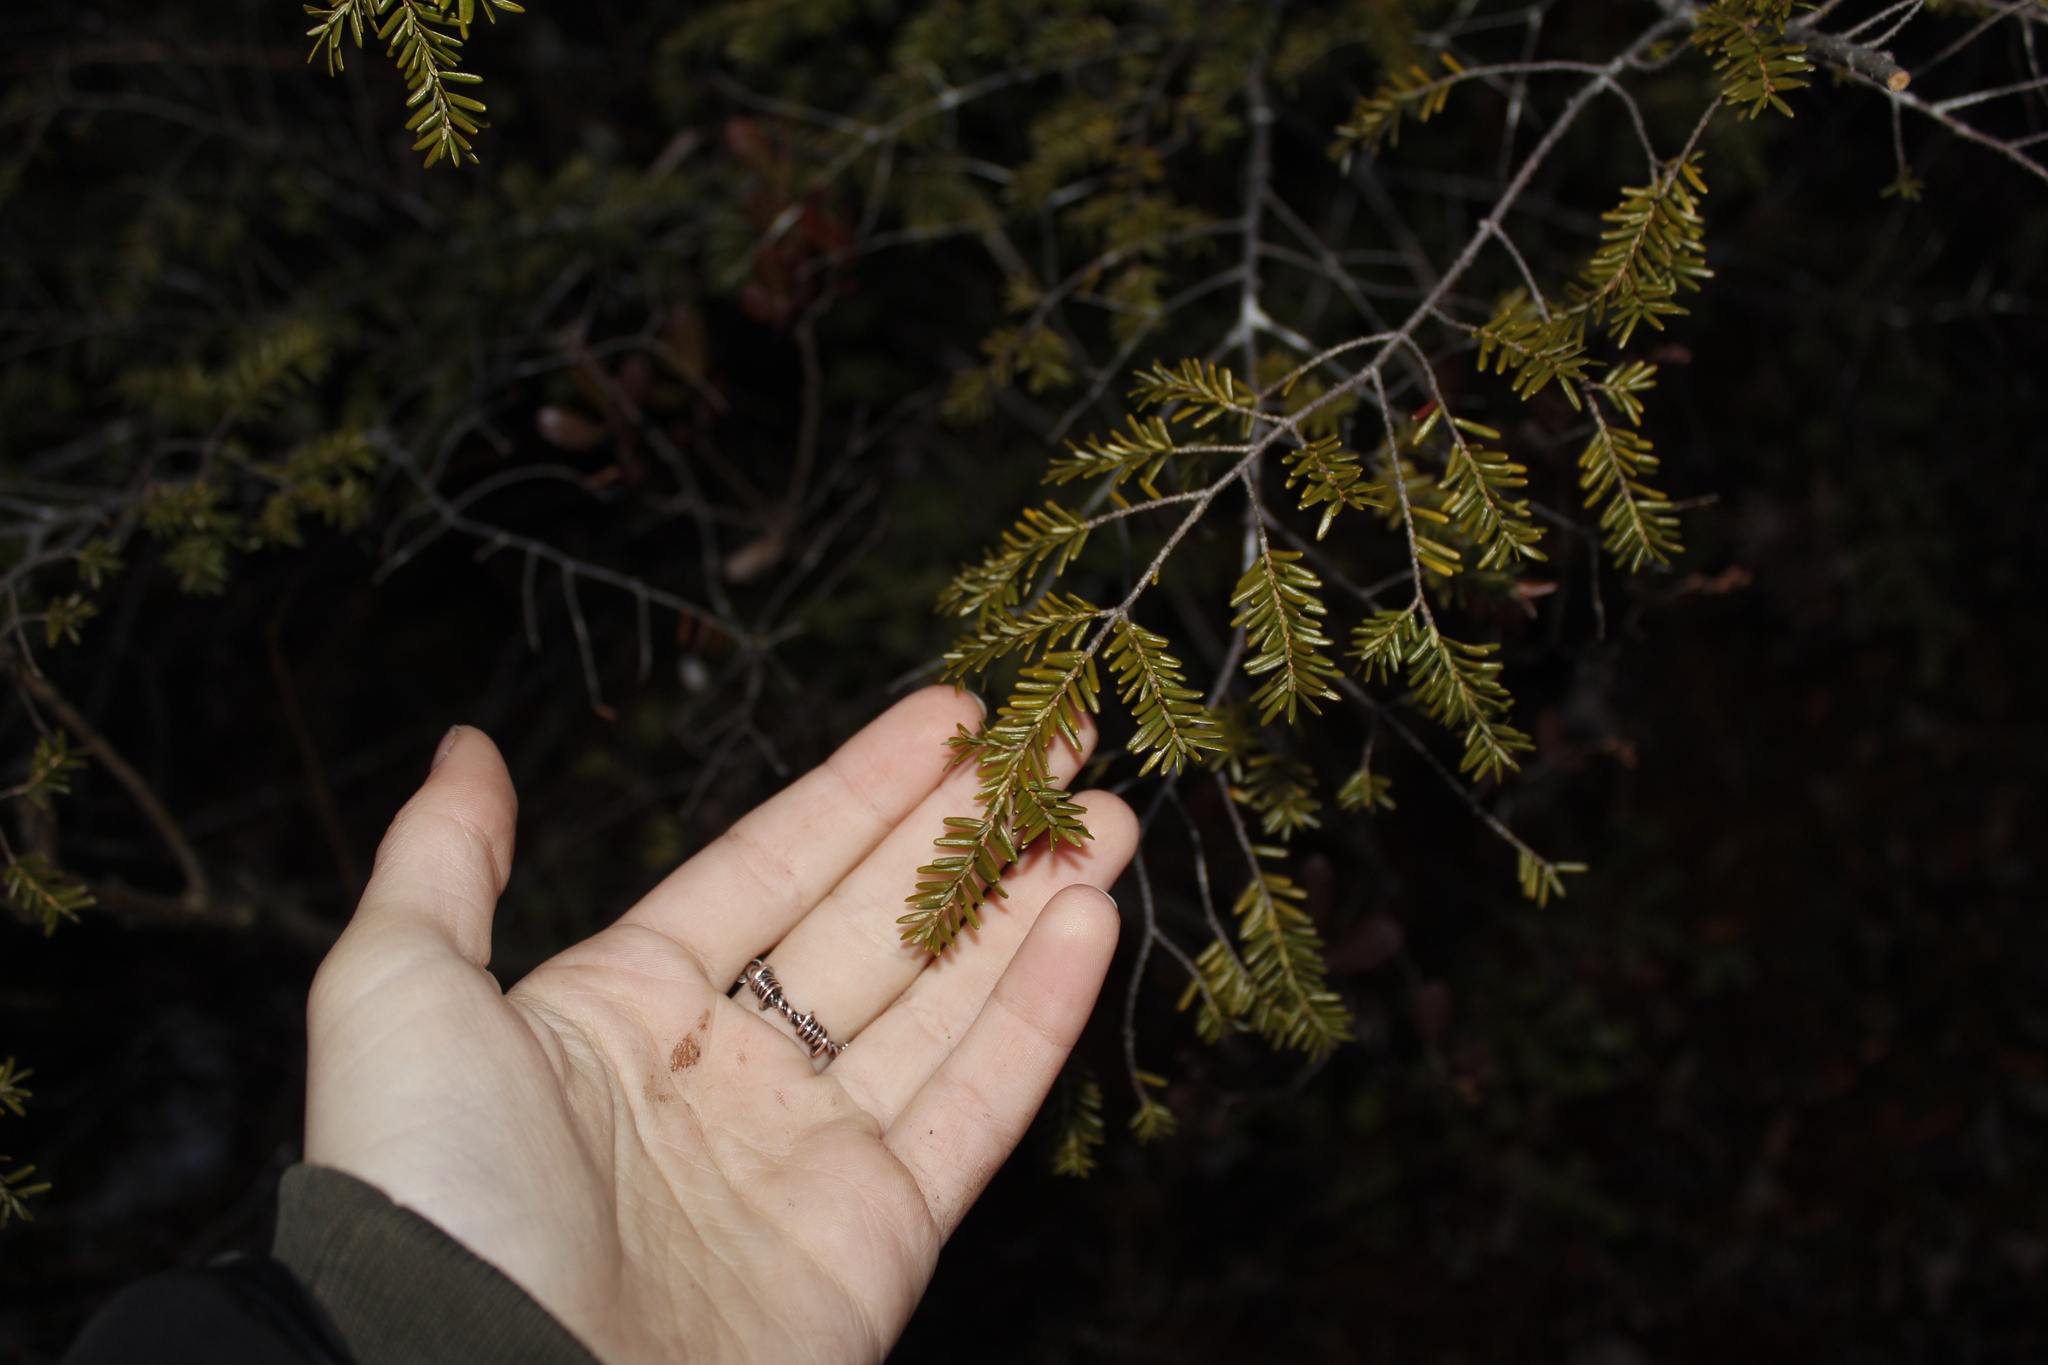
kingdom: Plantae
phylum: Tracheophyta
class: Pinopsida
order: Pinales
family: Pinaceae
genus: Tsuga
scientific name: Tsuga canadensis
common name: Eastern hemlock
